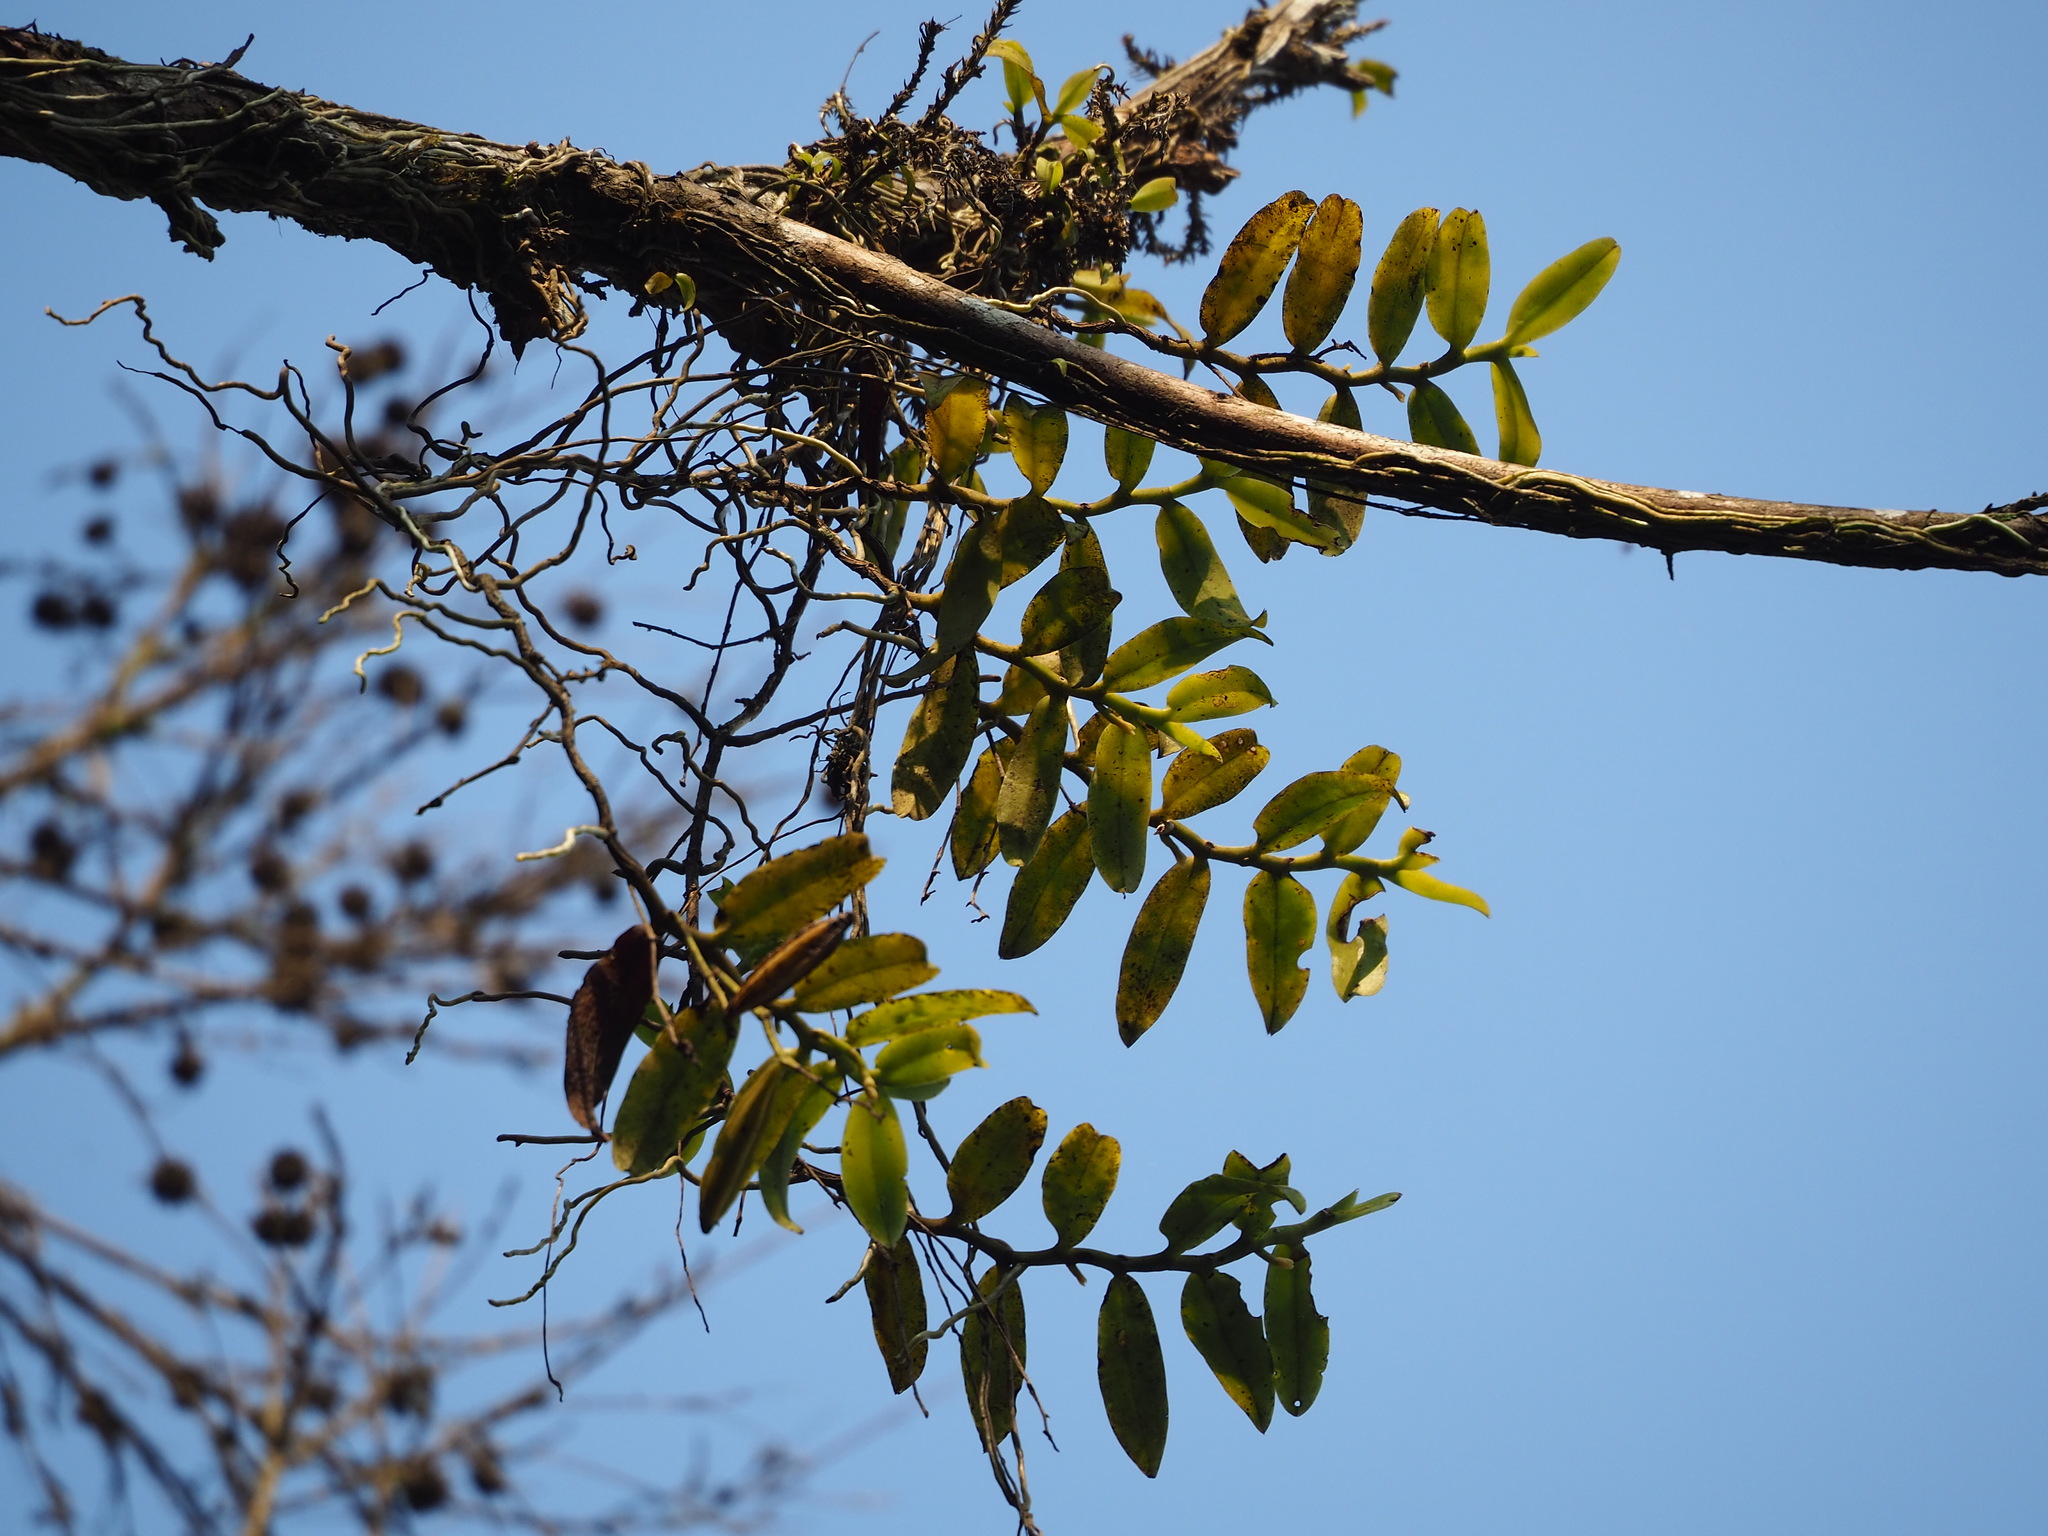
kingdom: Plantae
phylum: Tracheophyta
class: Liliopsida
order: Asparagales
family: Orchidaceae
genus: Diploprora
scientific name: Diploprora championii
